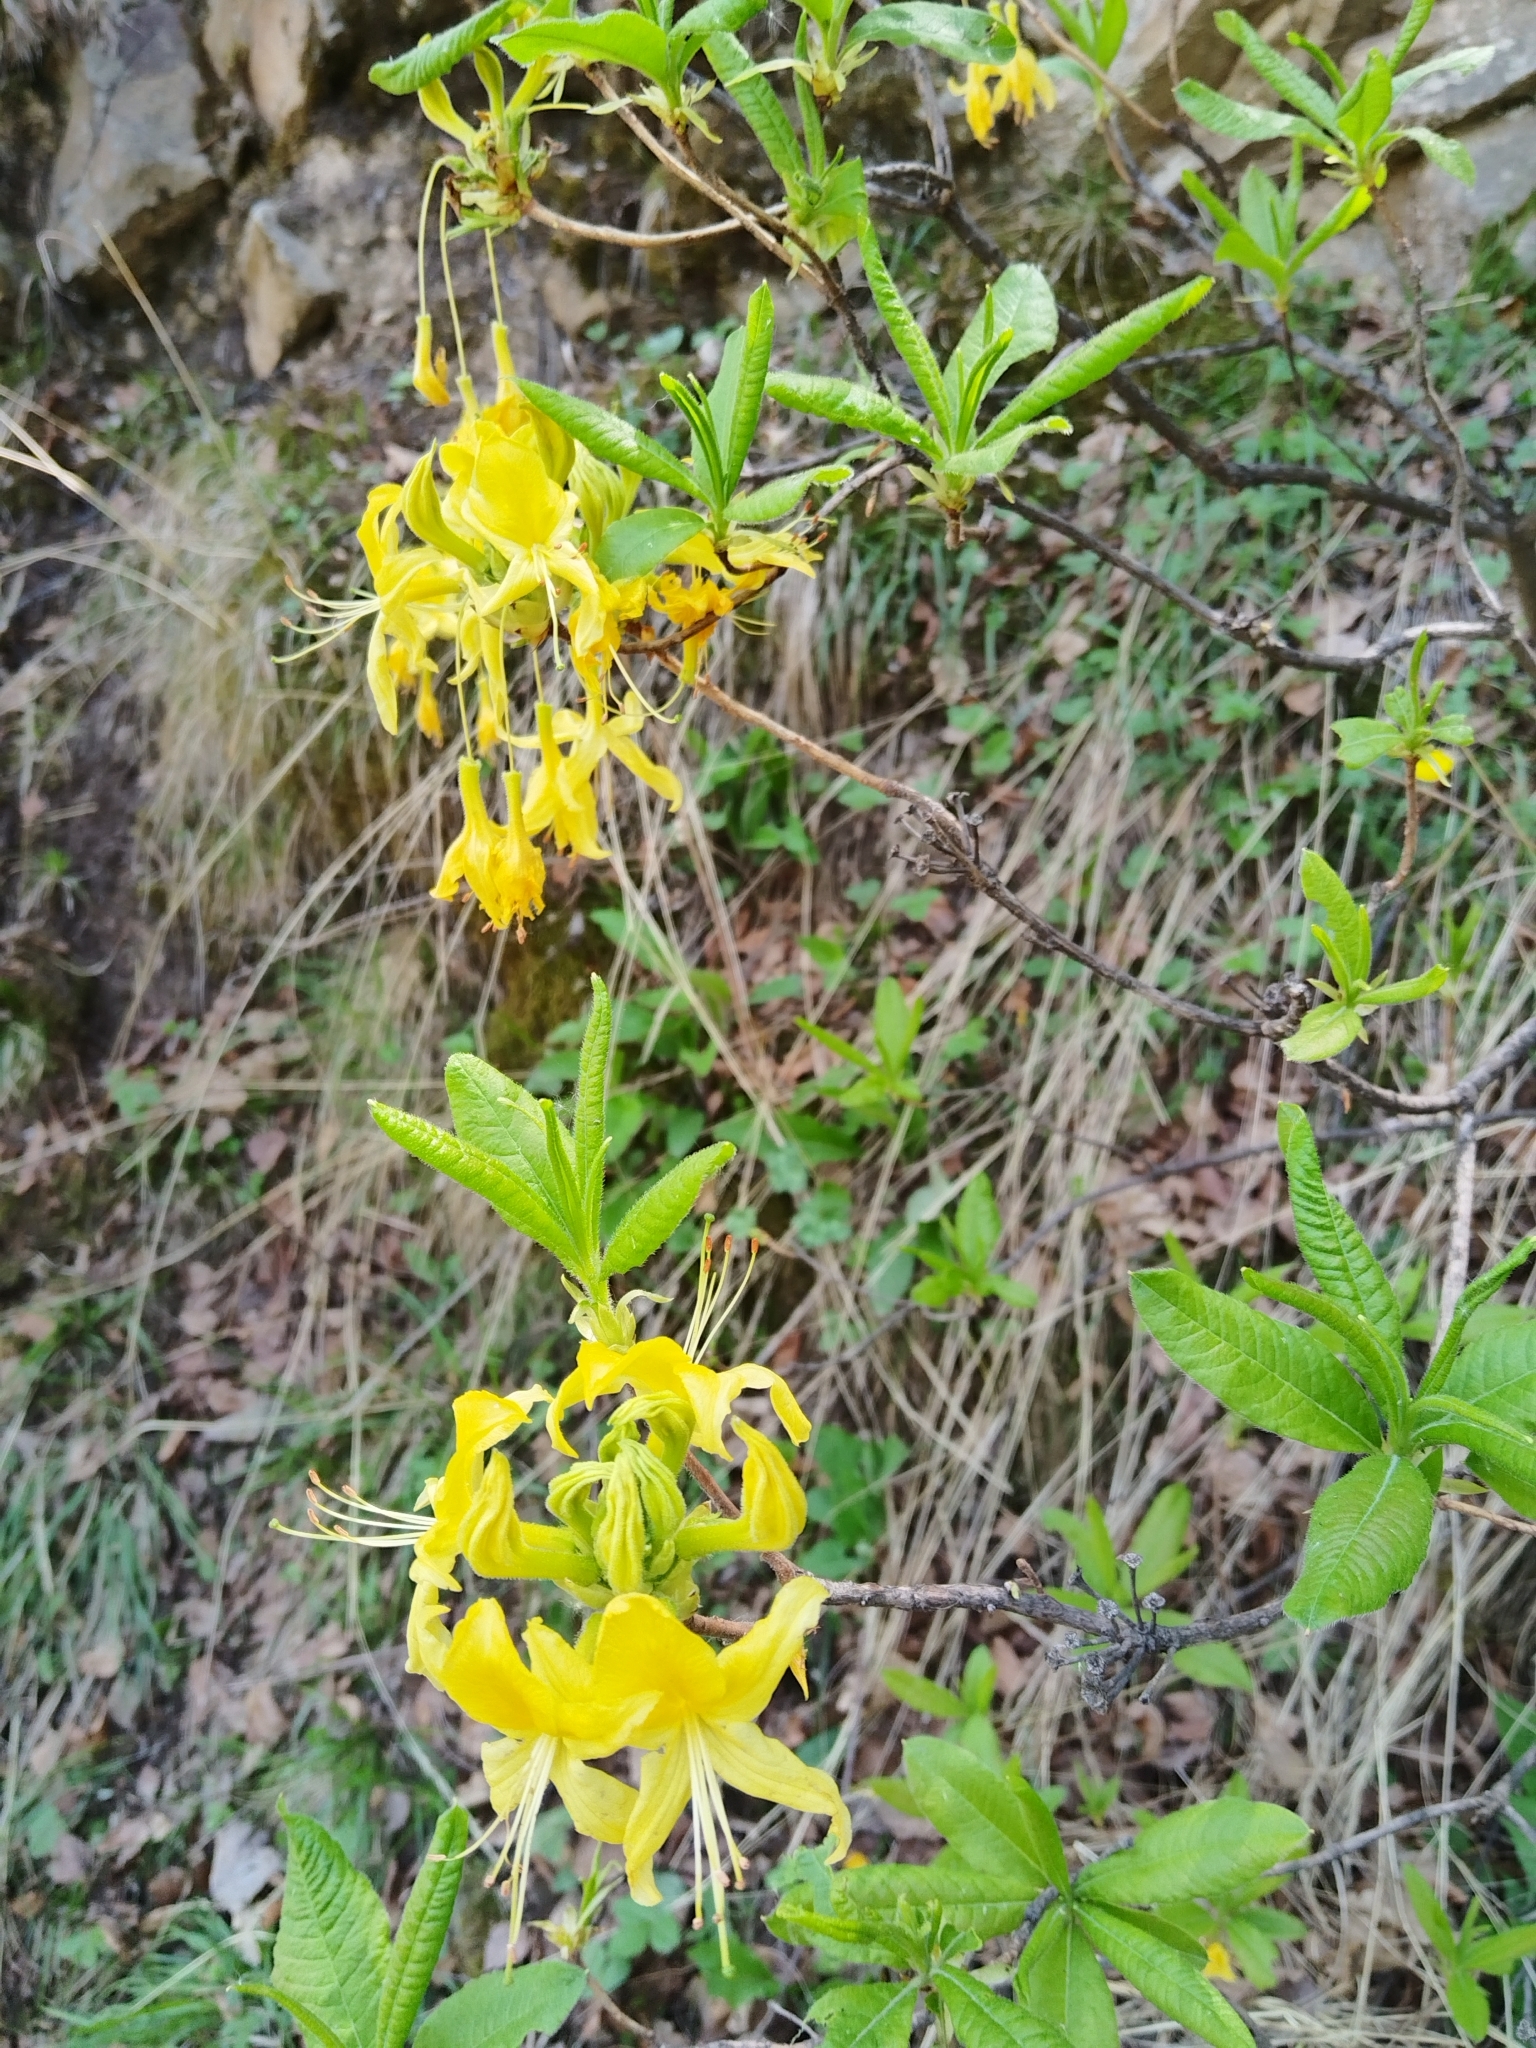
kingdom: Plantae
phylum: Tracheophyta
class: Magnoliopsida
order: Ericales
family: Ericaceae
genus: Rhododendron
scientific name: Rhododendron luteum
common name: Yellow azalea
